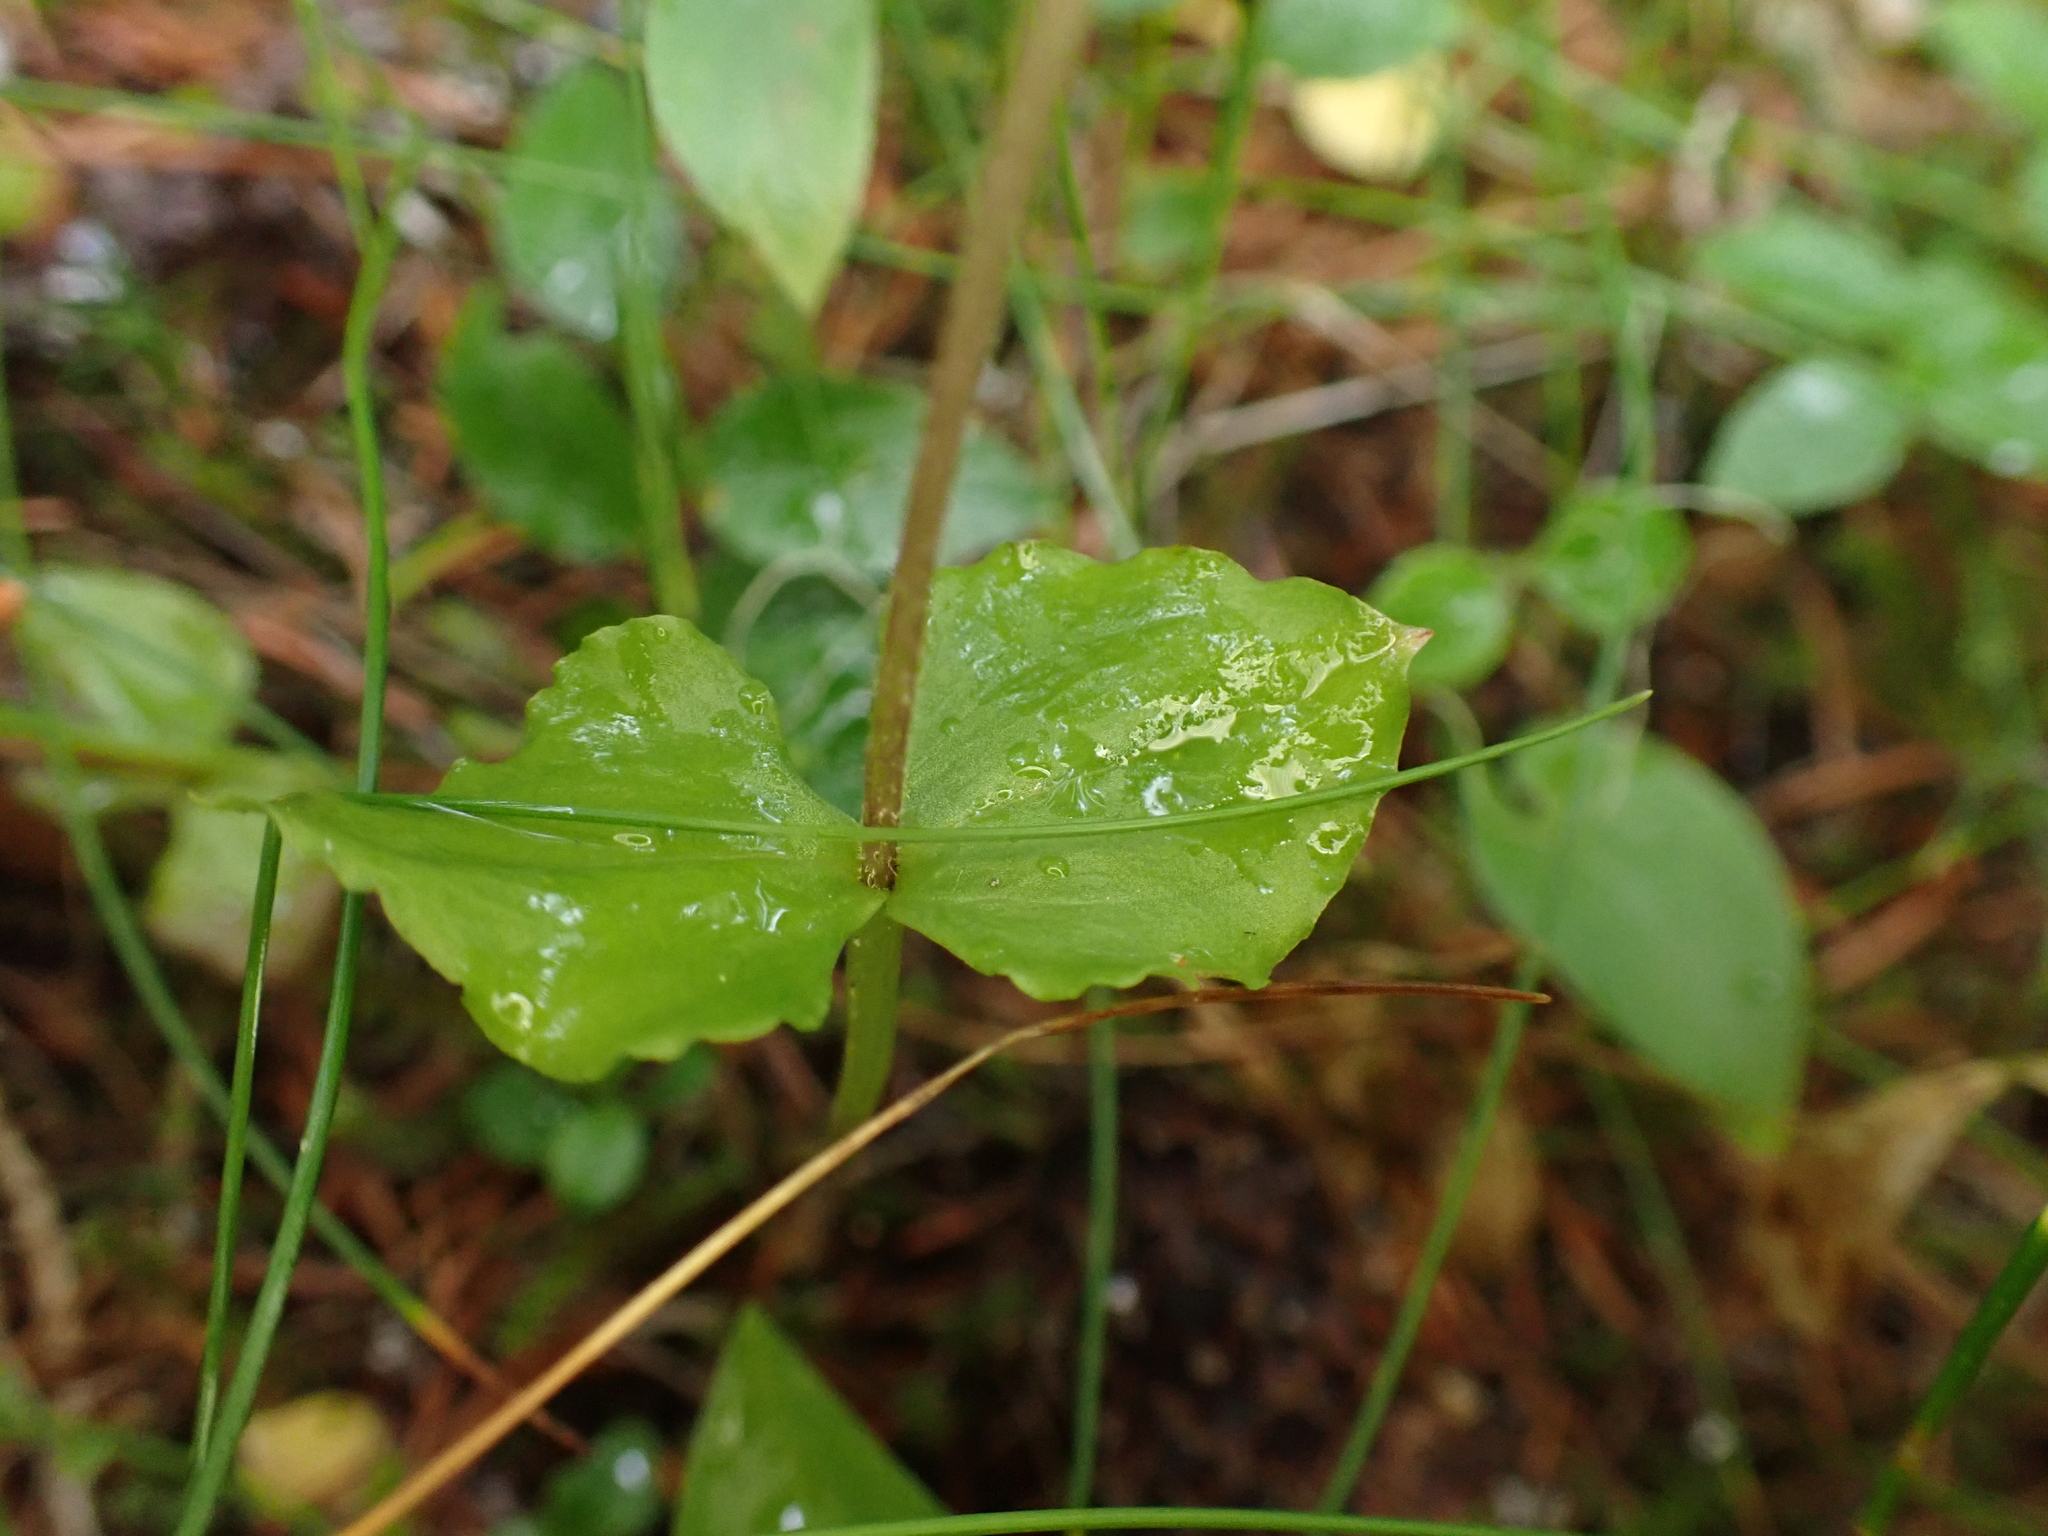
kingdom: Plantae
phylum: Tracheophyta
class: Liliopsida
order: Asparagales
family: Orchidaceae
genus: Neottia
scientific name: Neottia cordata
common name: Lesser twayblade
